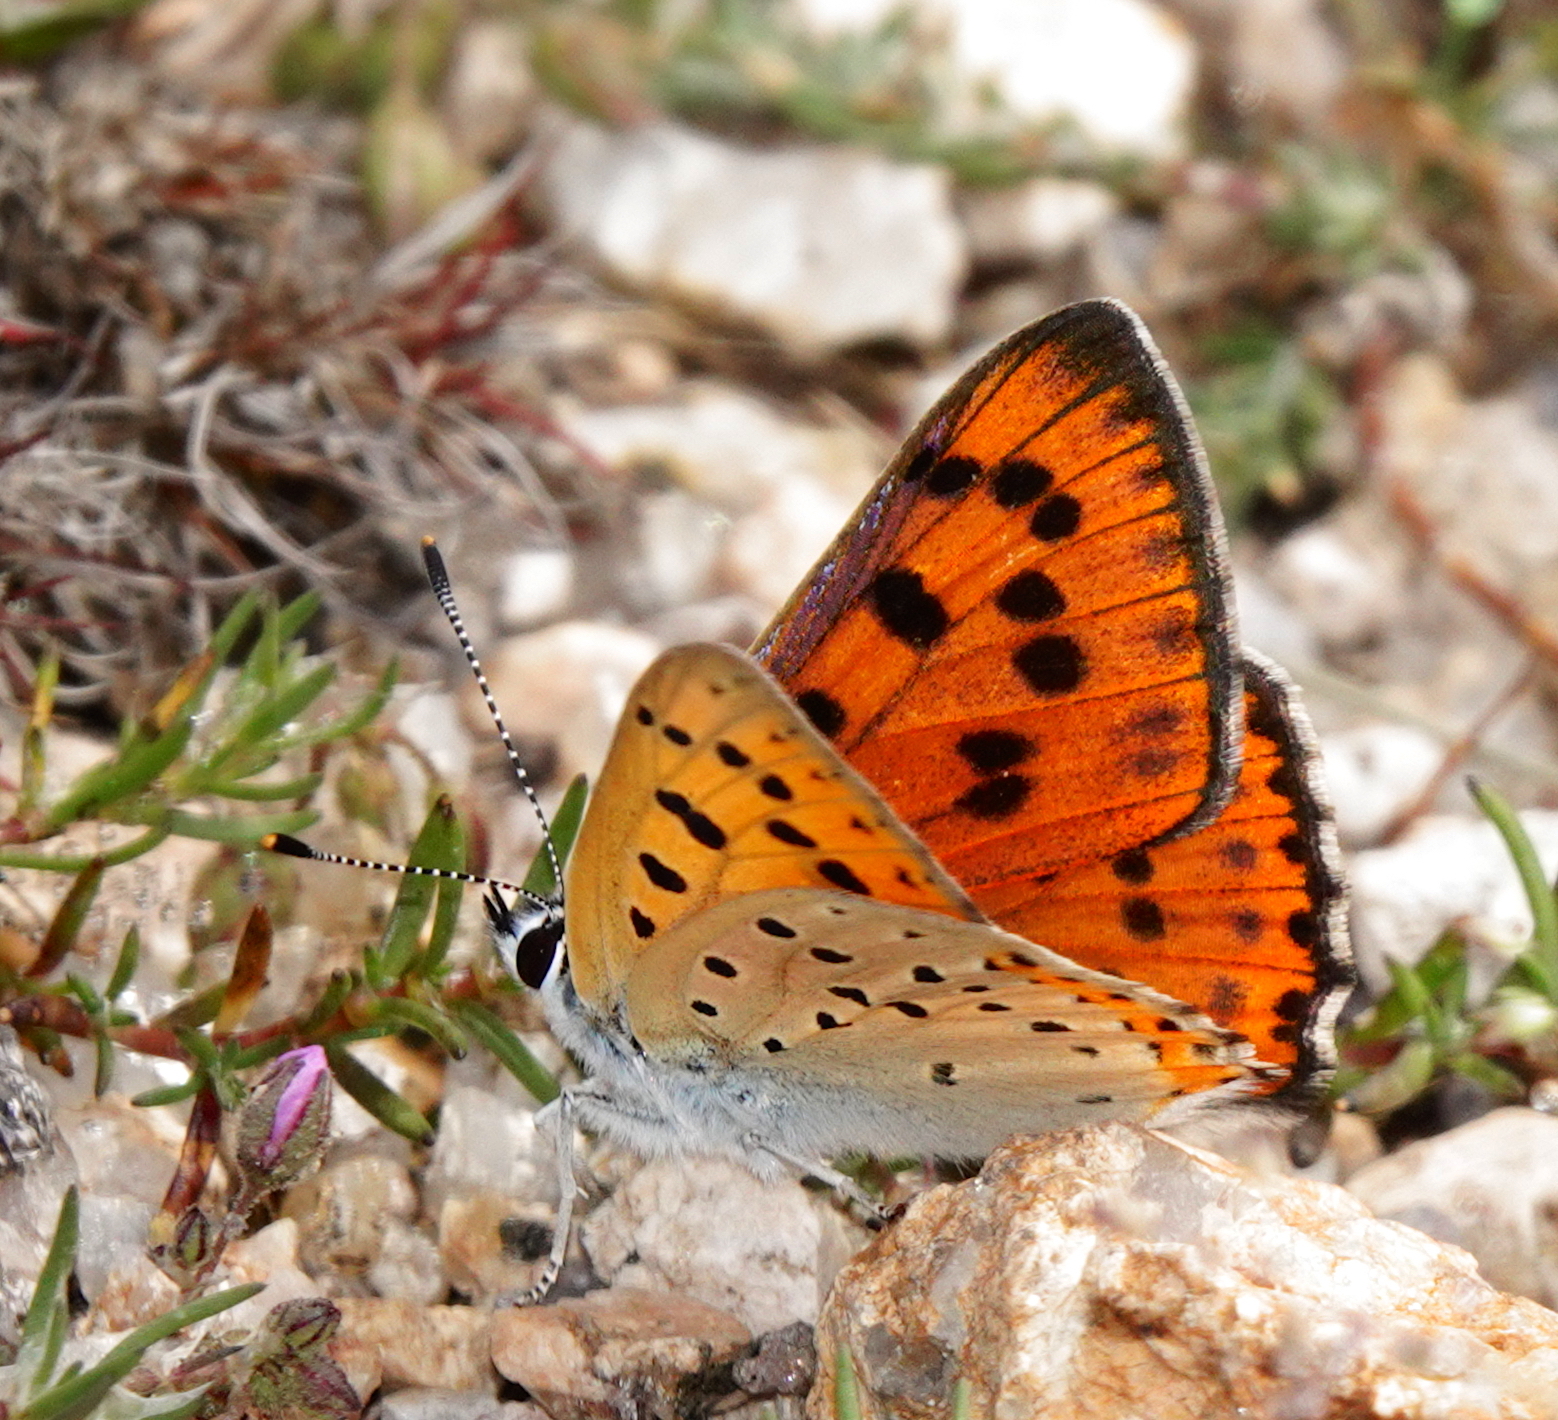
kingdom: Animalia
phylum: Arthropoda
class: Insecta
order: Lepidoptera
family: Lycaenidae
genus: Lycaena
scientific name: Lycaena alciphron
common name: Purple-shot copper
